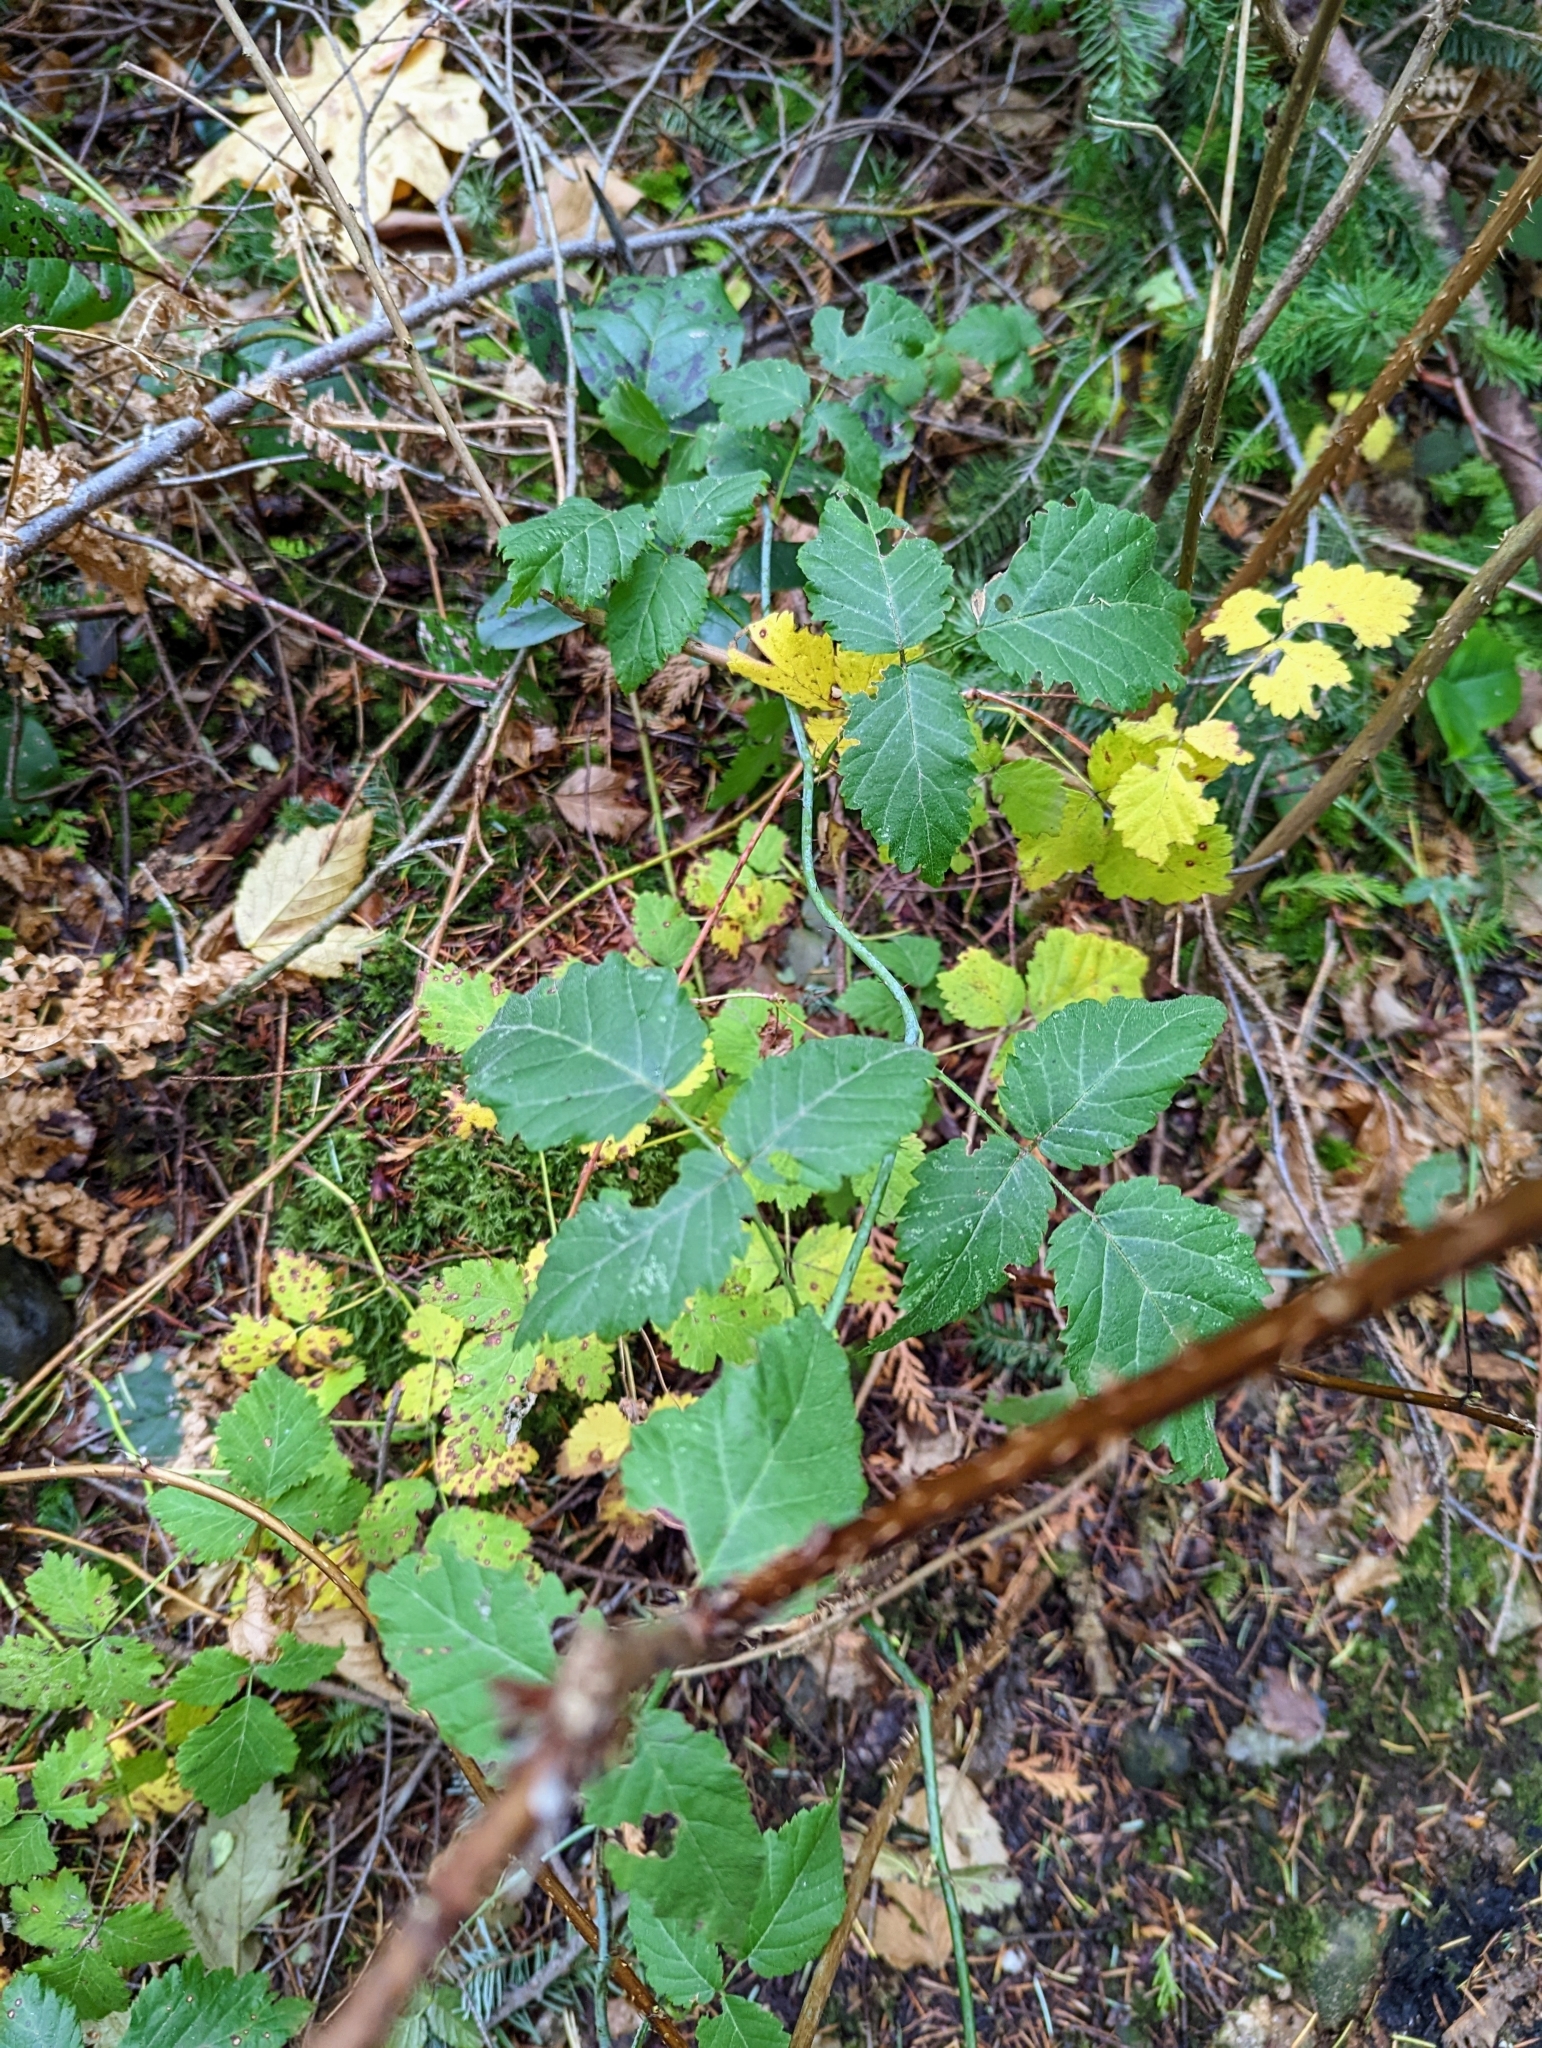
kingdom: Plantae
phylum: Tracheophyta
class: Magnoliopsida
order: Rosales
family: Rosaceae
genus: Rubus
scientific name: Rubus ursinus
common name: Pacific blackberry
